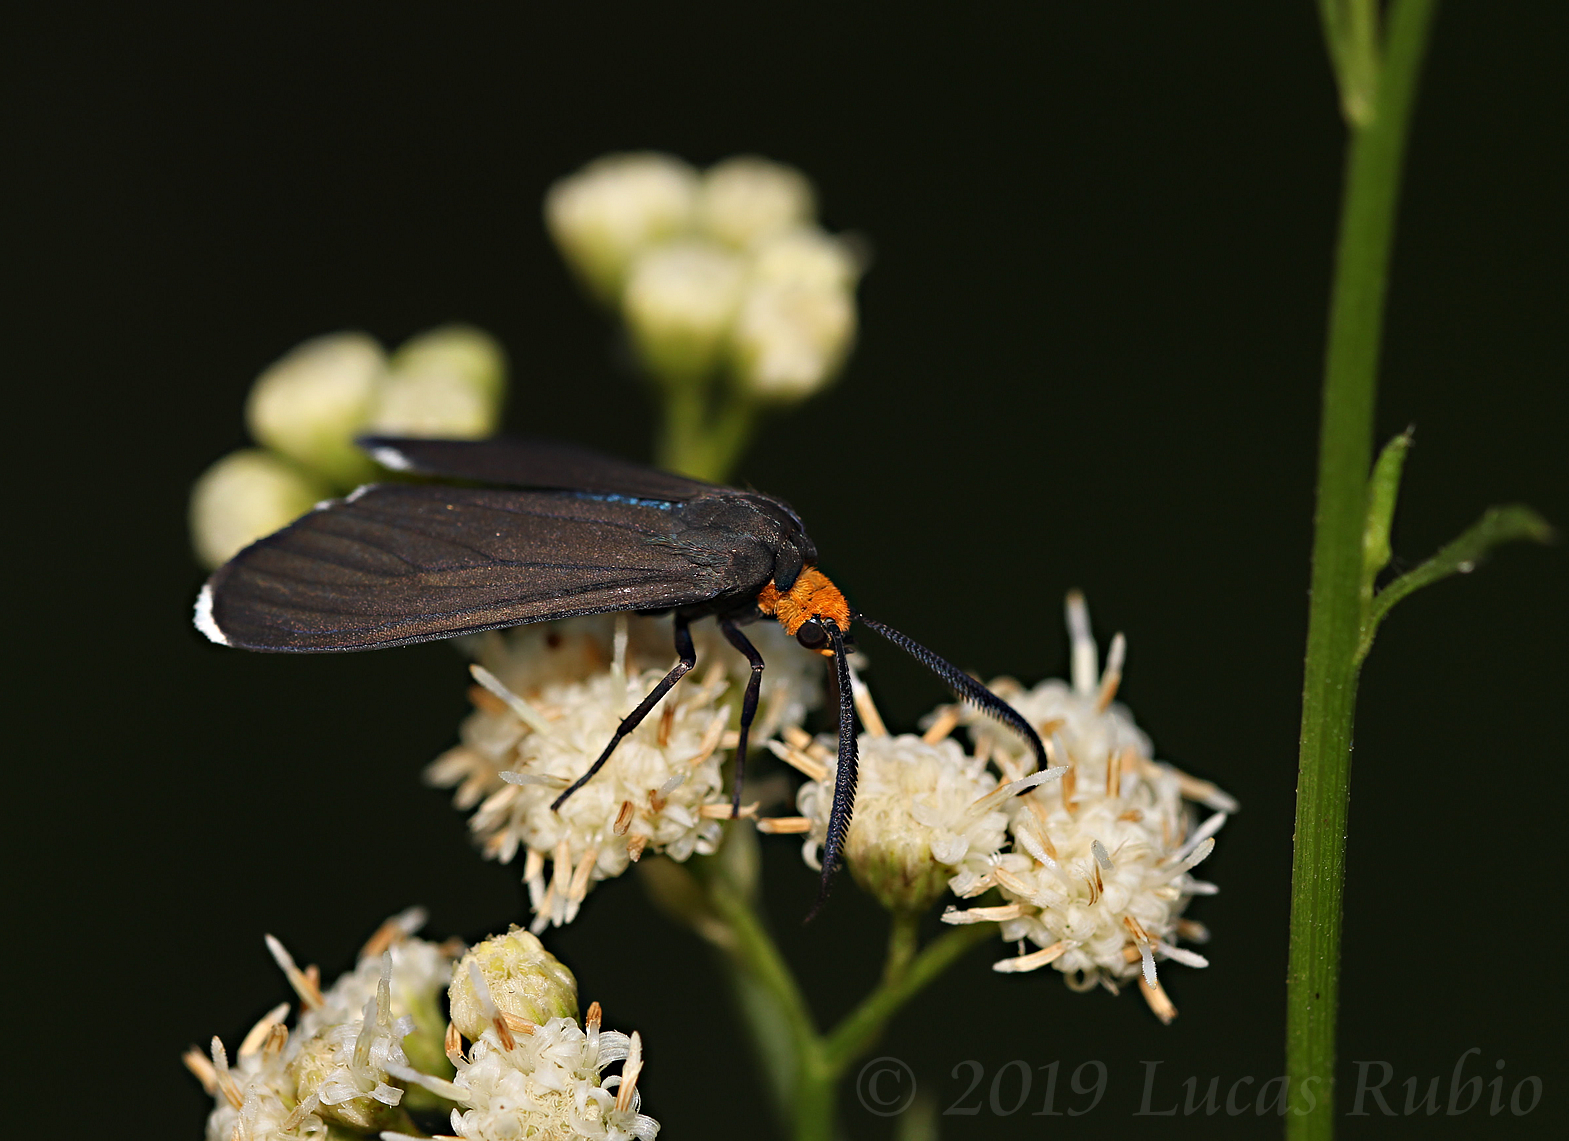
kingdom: Animalia
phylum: Arthropoda
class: Insecta
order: Lepidoptera
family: Erebidae
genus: Ctenucha
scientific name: Ctenucha rubriceps
